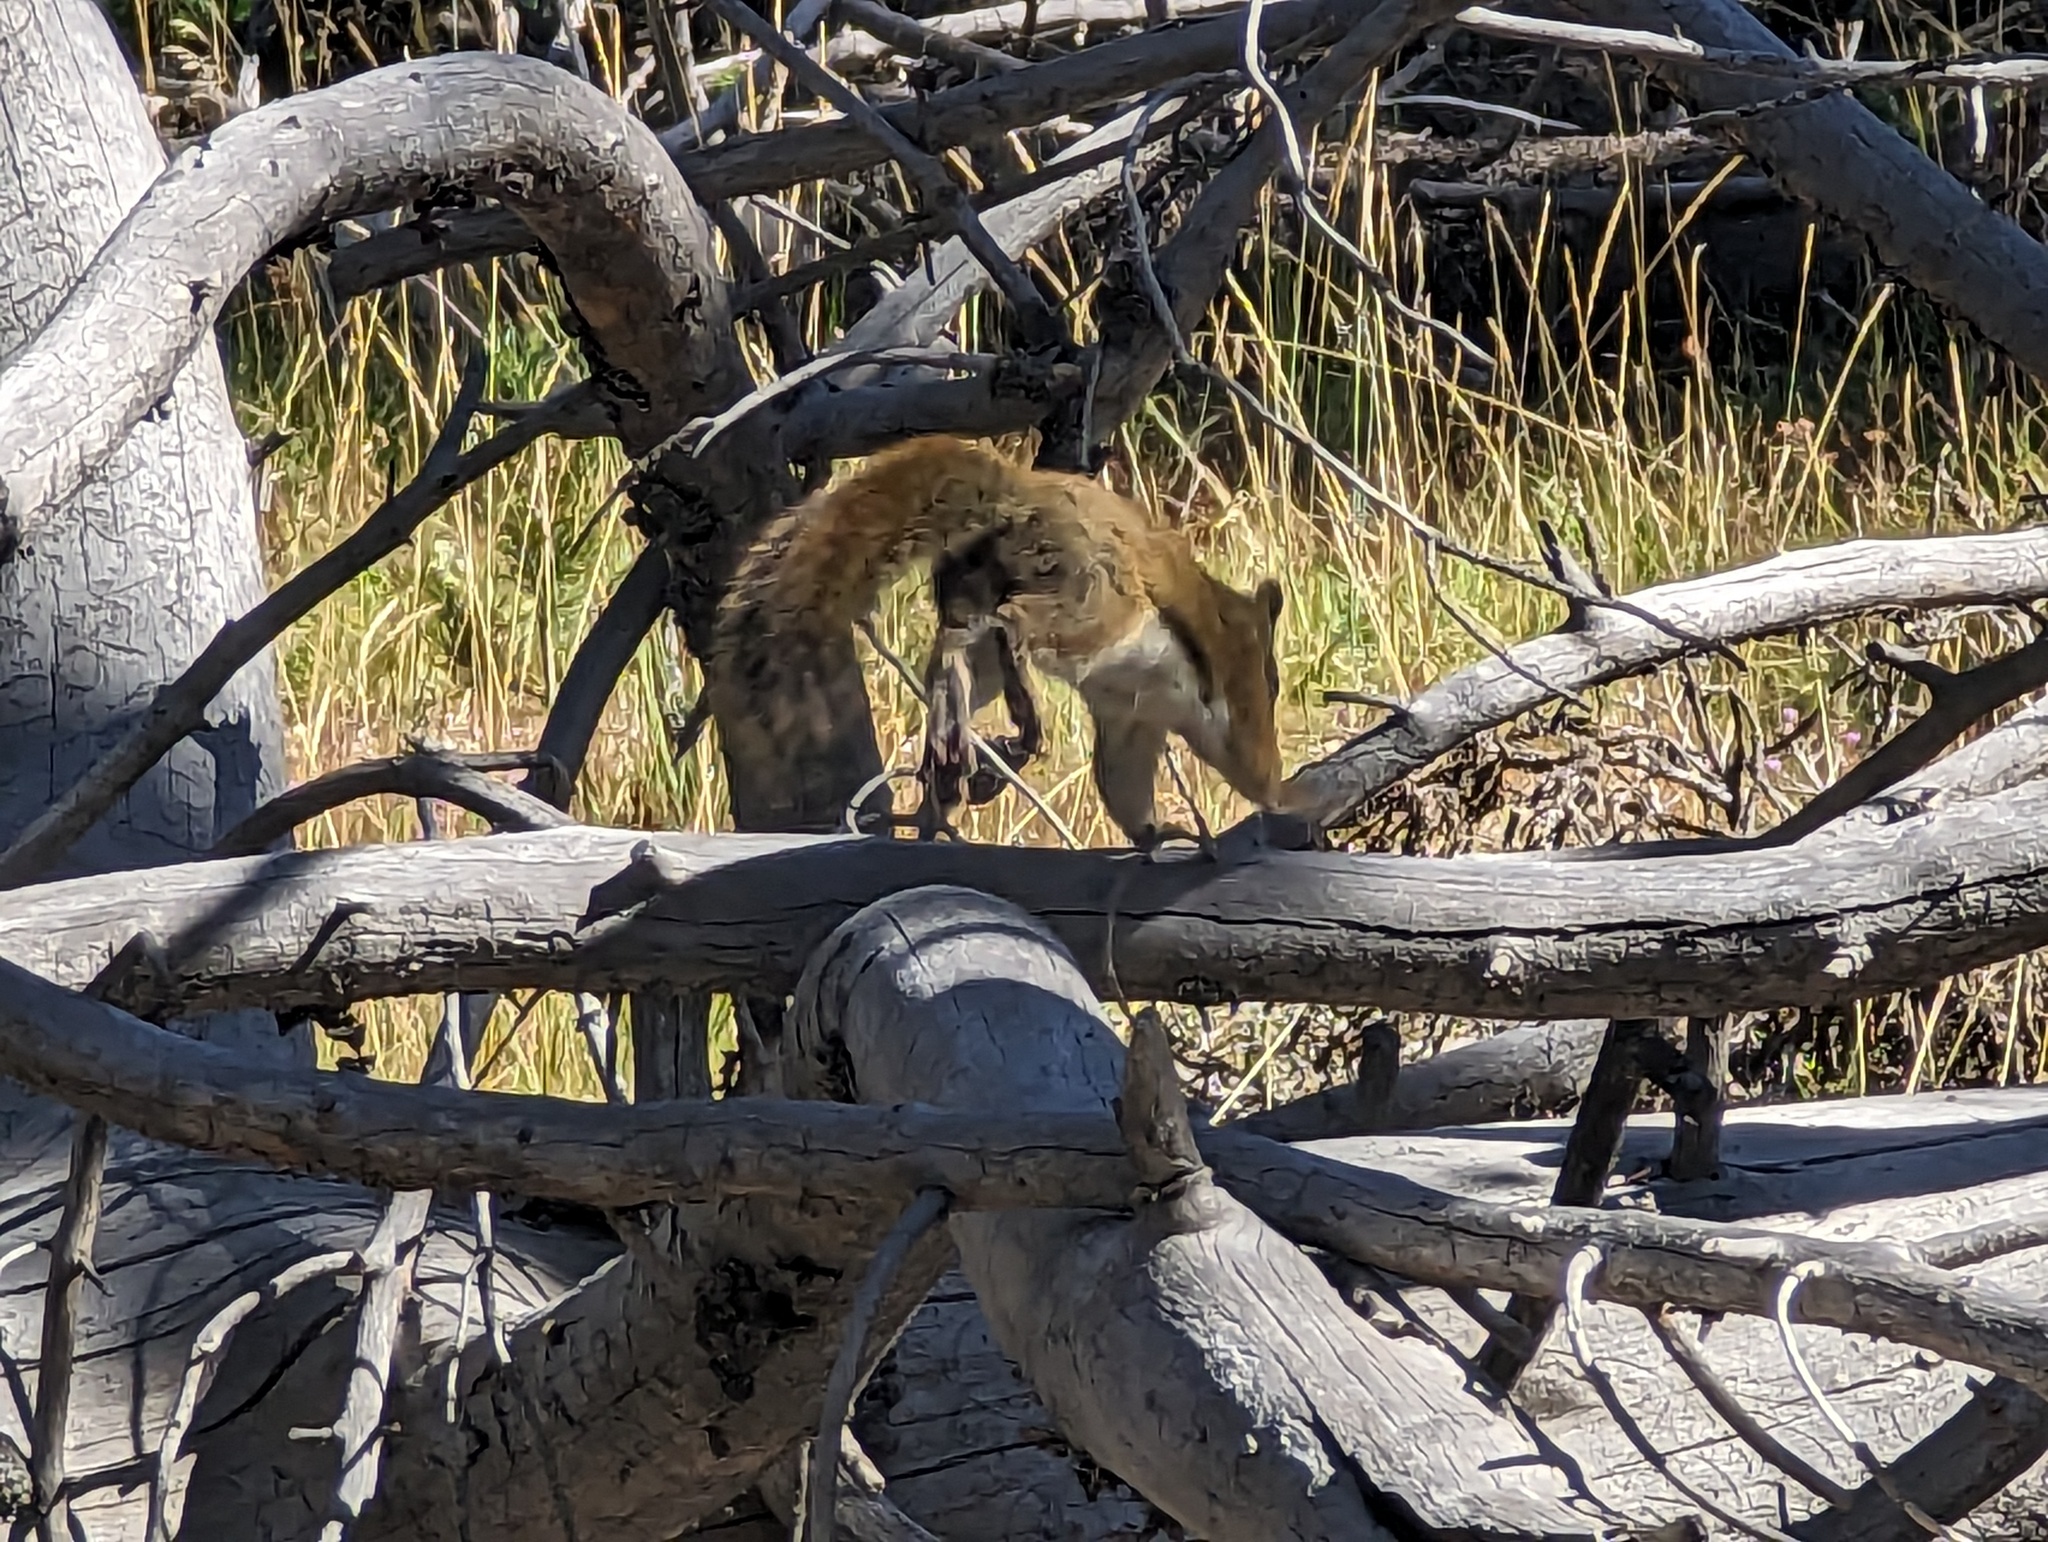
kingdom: Animalia
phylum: Chordata
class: Mammalia
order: Rodentia
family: Sciuridae
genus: Tamiasciurus
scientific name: Tamiasciurus hudsonicus
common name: Red squirrel
